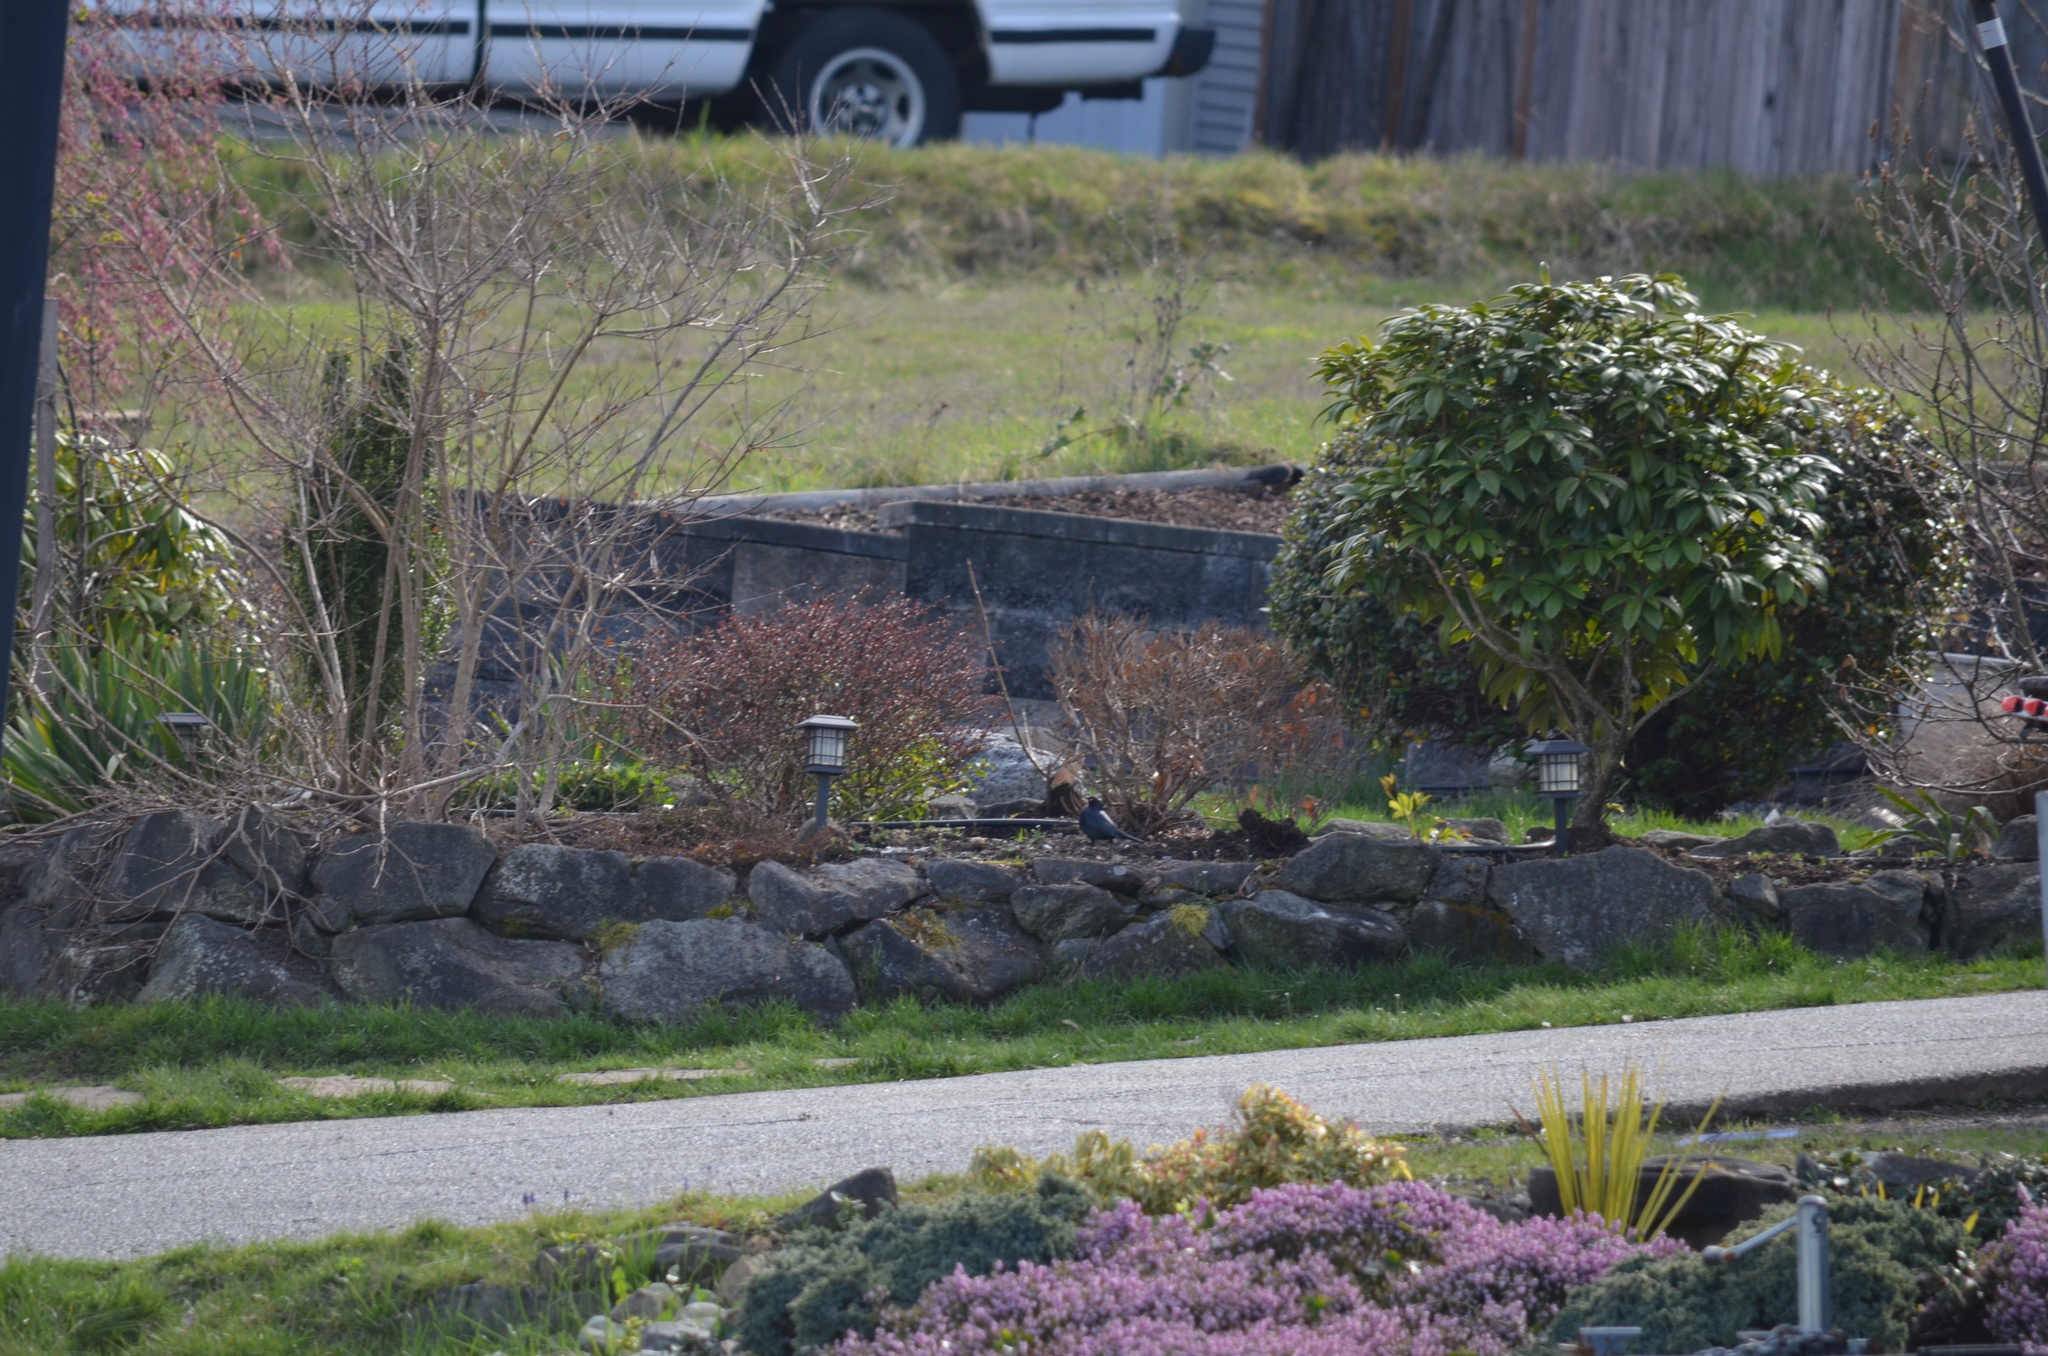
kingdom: Animalia
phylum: Chordata
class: Aves
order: Passeriformes
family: Icteridae
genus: Euphagus
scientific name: Euphagus cyanocephalus
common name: Brewer's blackbird
